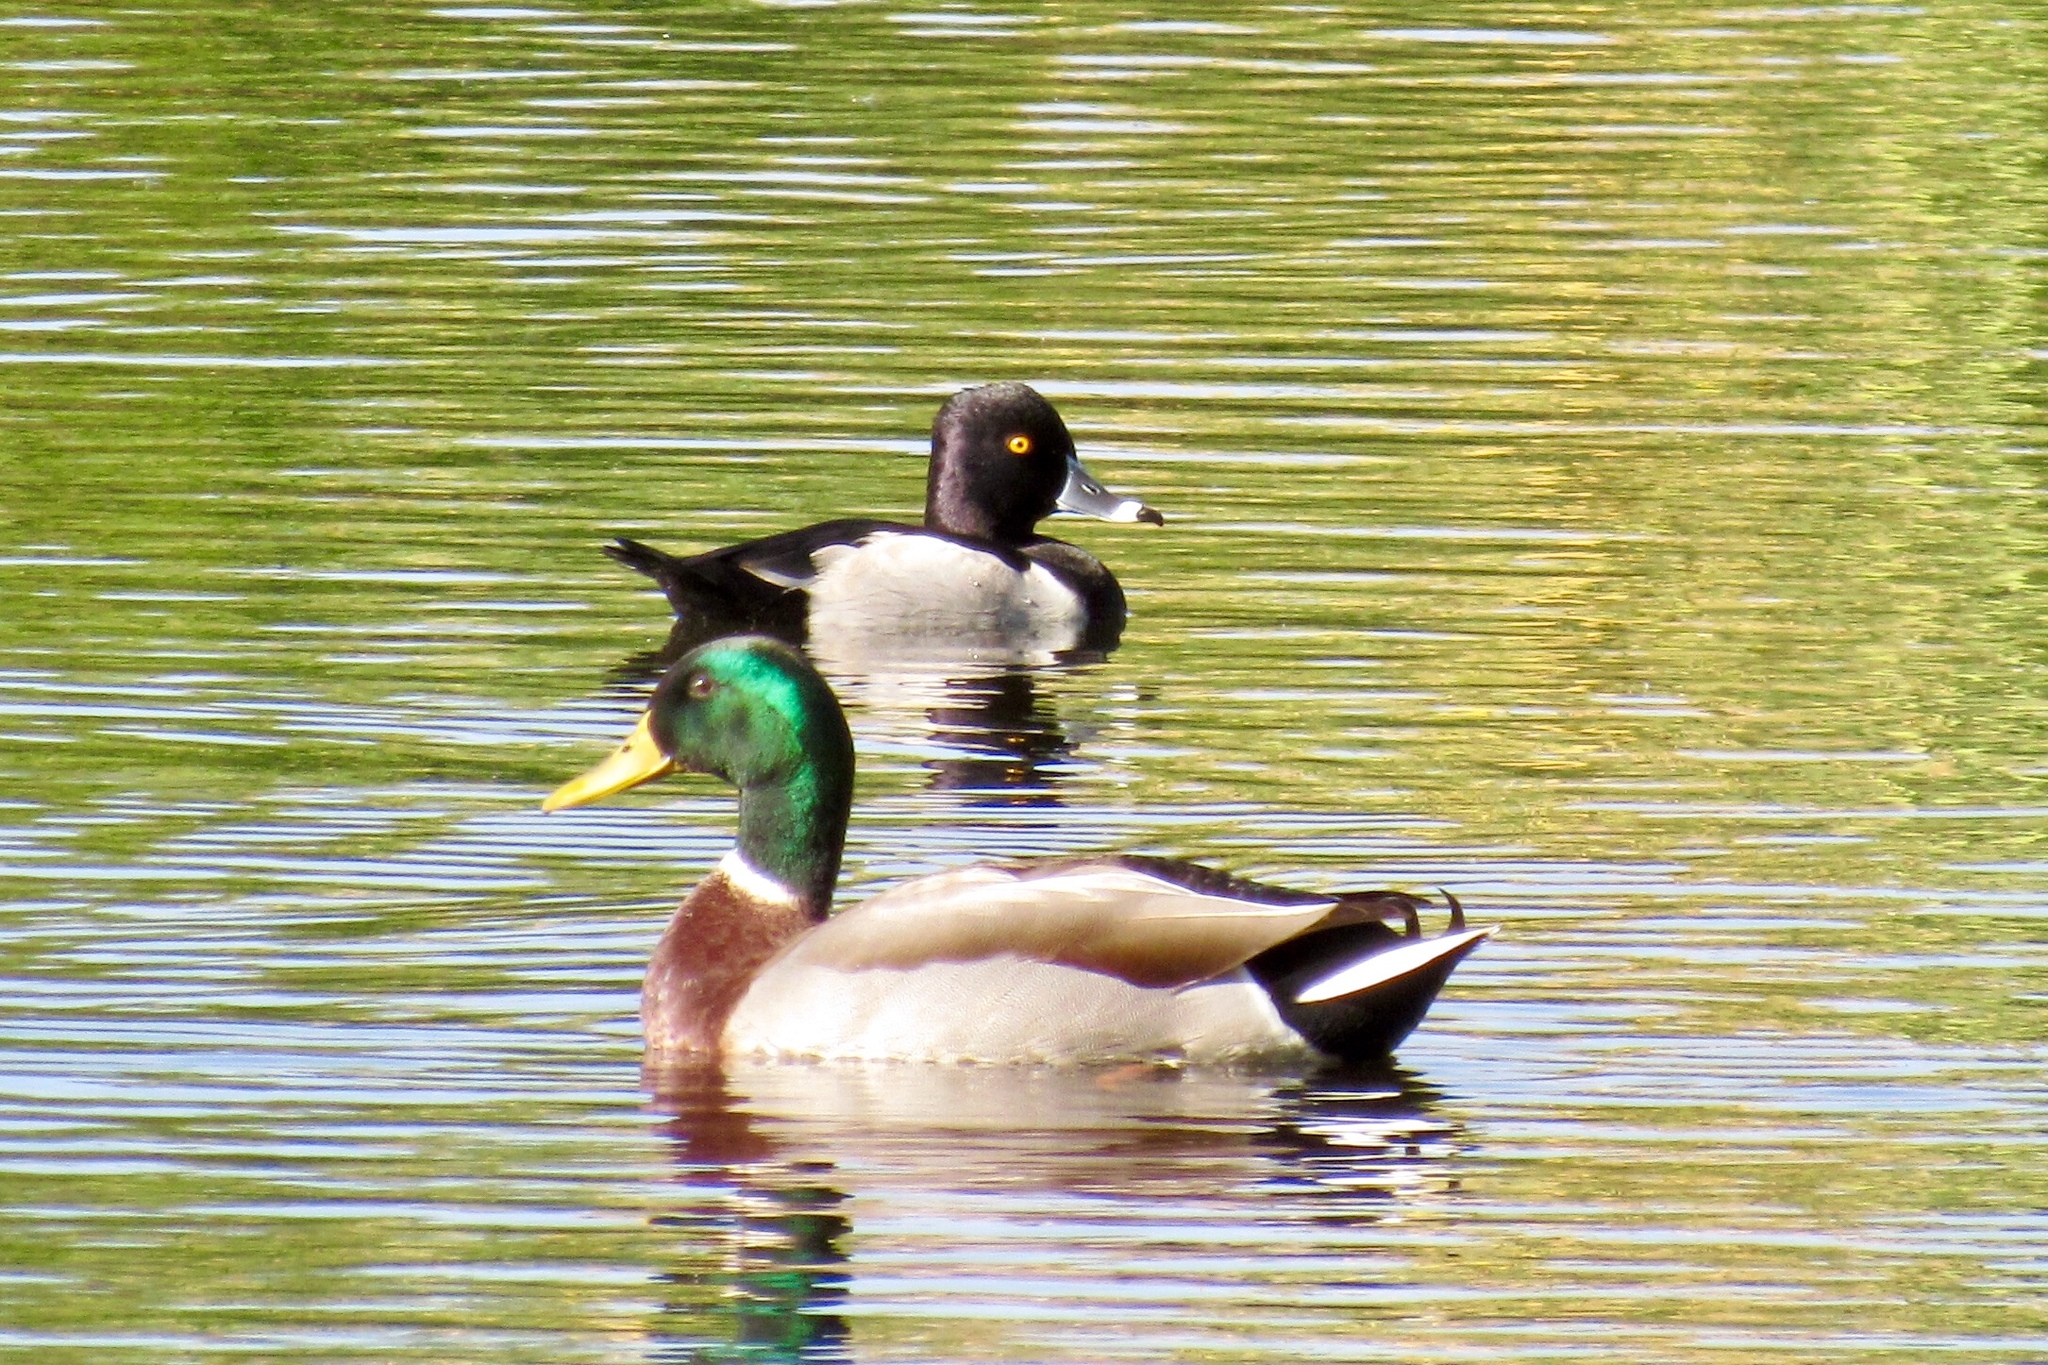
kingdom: Animalia
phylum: Chordata
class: Aves
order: Anseriformes
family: Anatidae
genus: Anas
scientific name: Anas platyrhynchos
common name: Mallard
